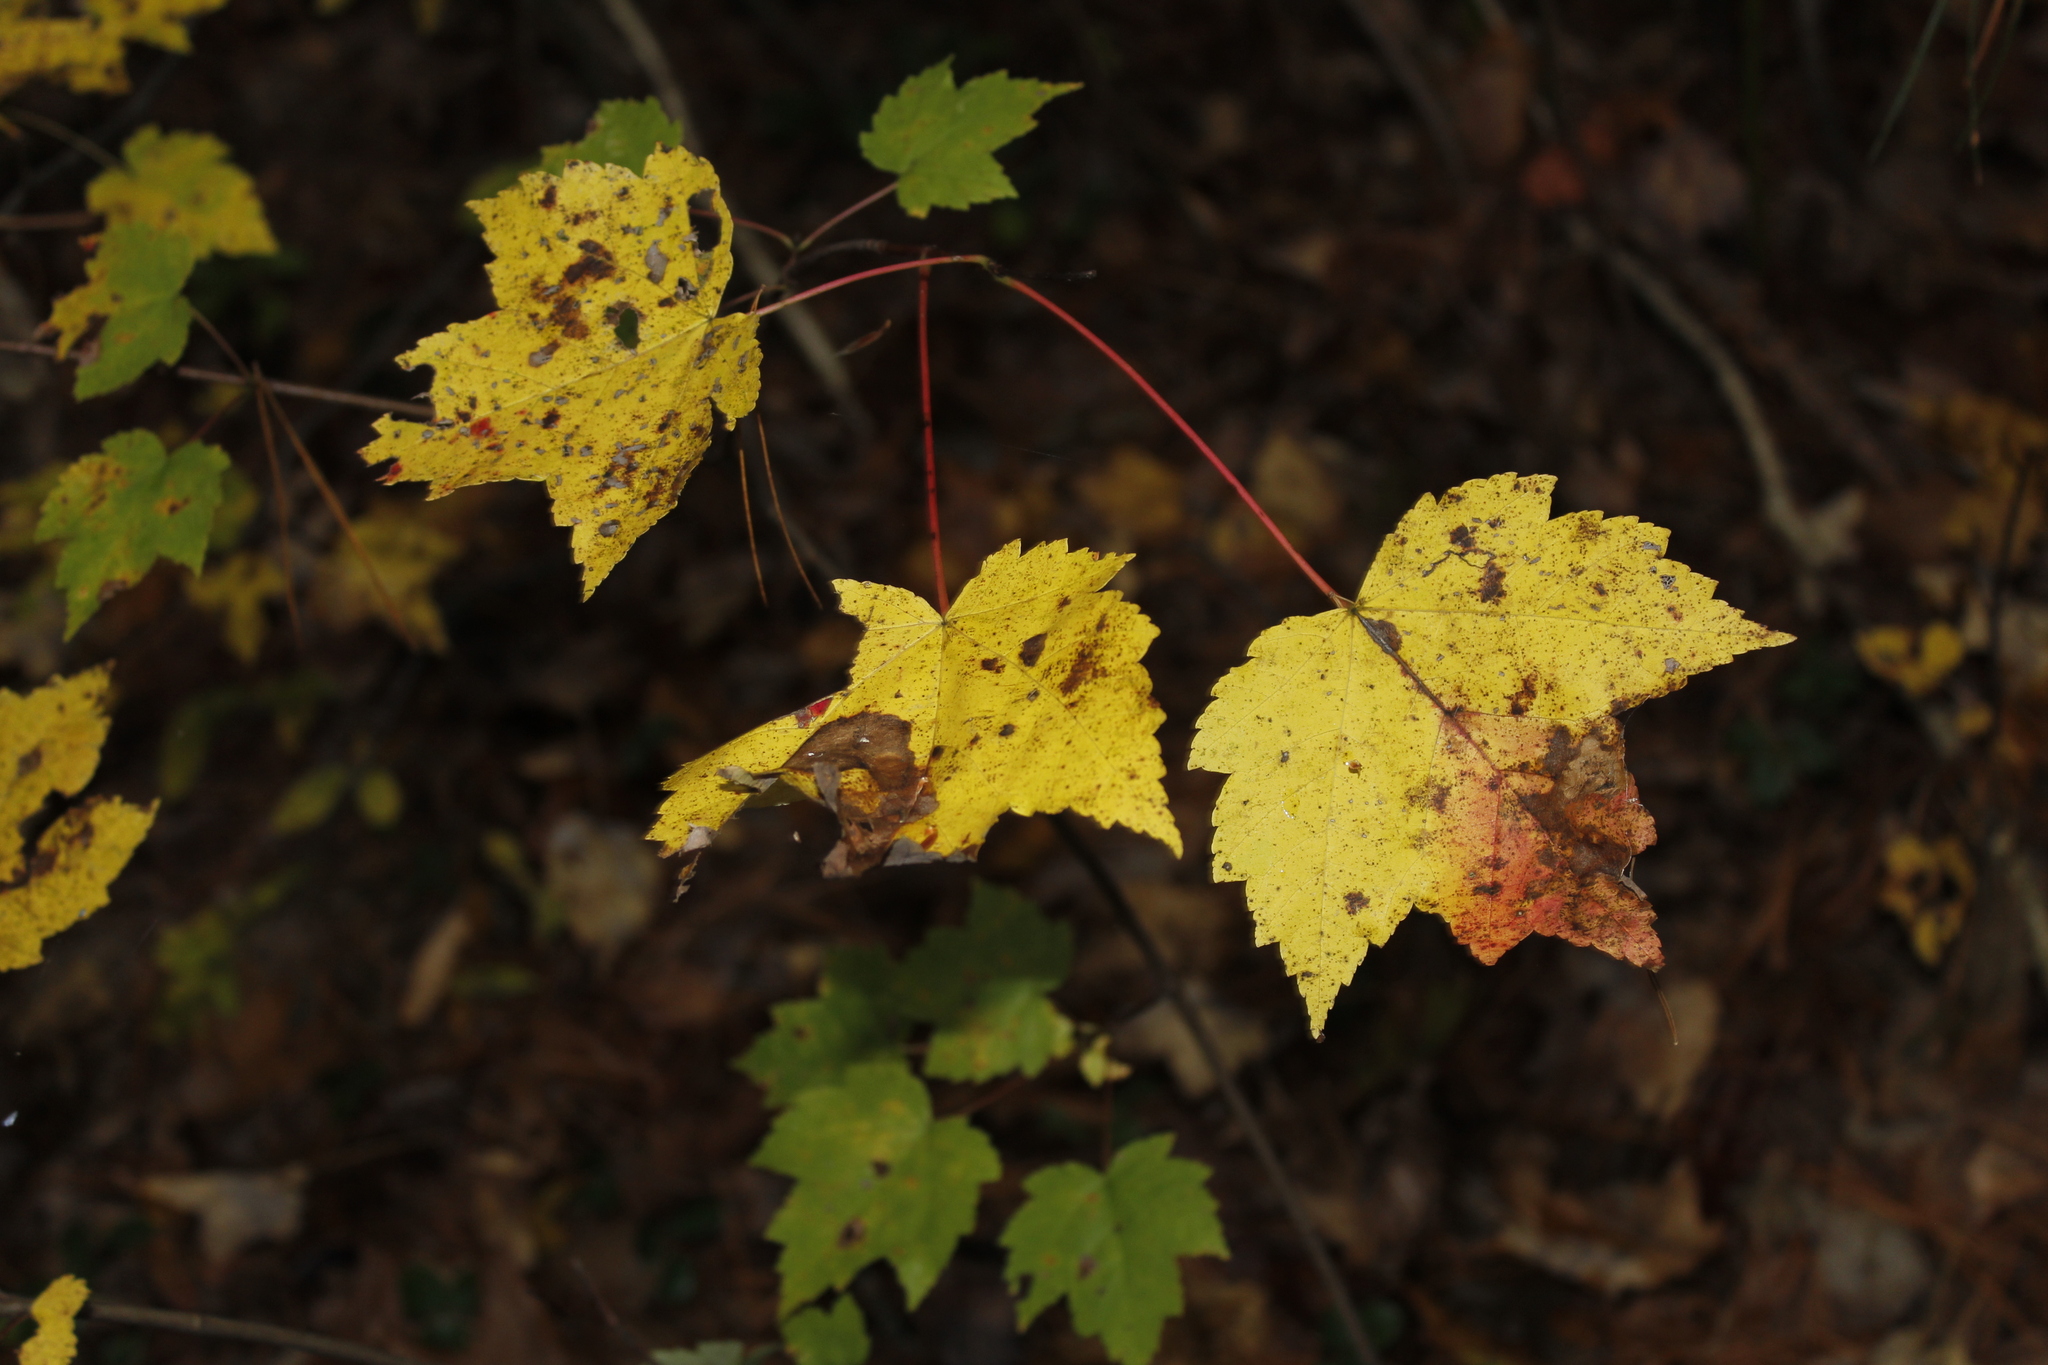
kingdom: Plantae
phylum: Tracheophyta
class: Magnoliopsida
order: Sapindales
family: Sapindaceae
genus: Acer
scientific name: Acer rubrum
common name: Red maple
